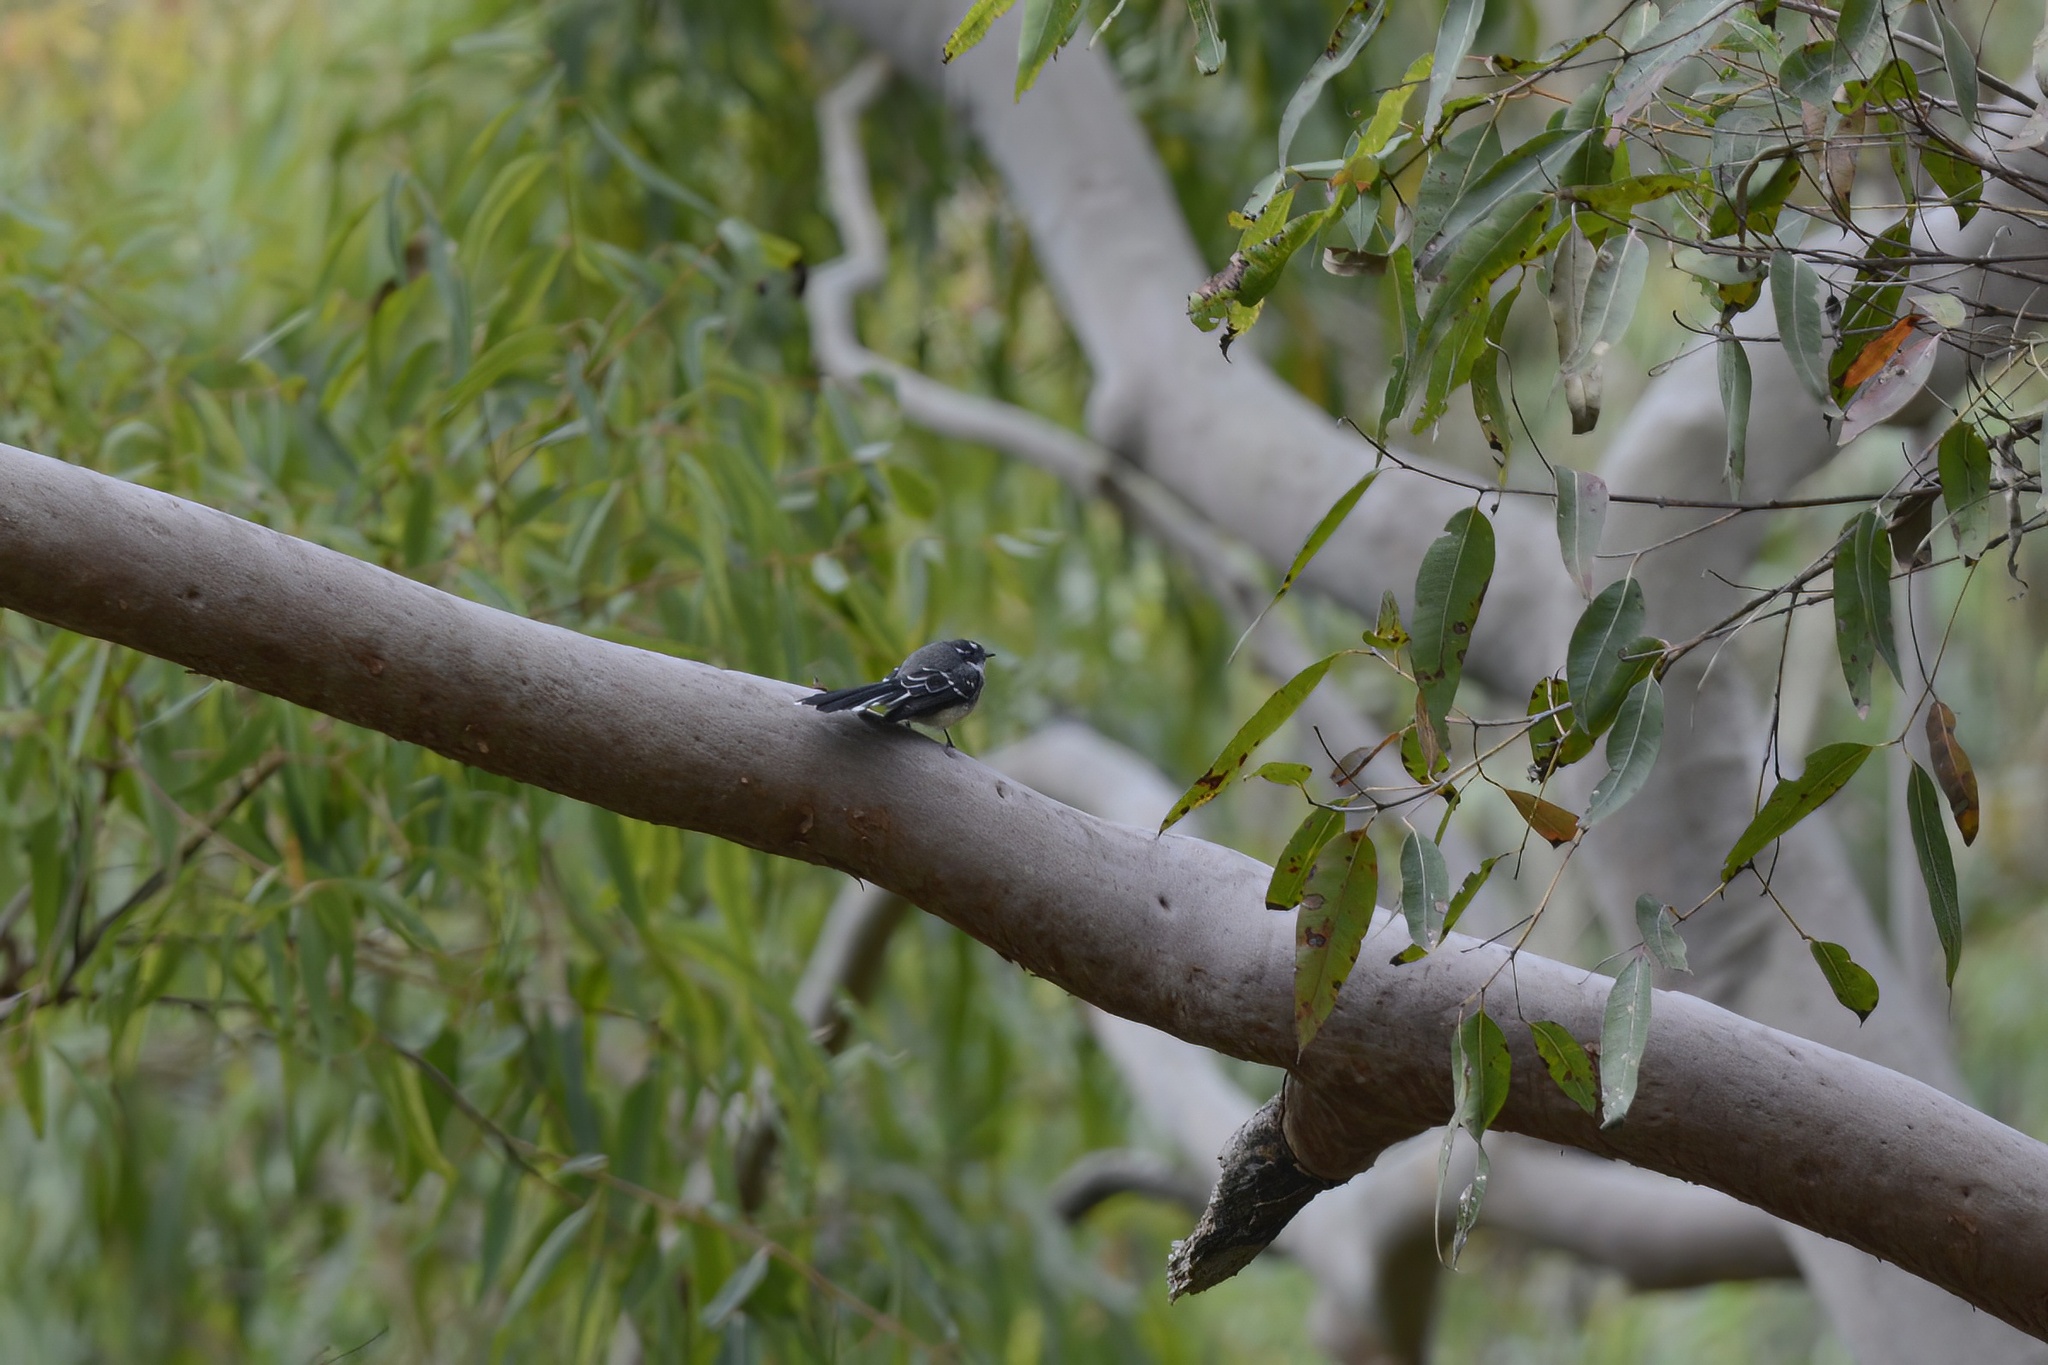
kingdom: Animalia
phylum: Chordata
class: Aves
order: Passeriformes
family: Rhipiduridae
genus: Rhipidura
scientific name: Rhipidura albiscapa
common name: Grey fantail
